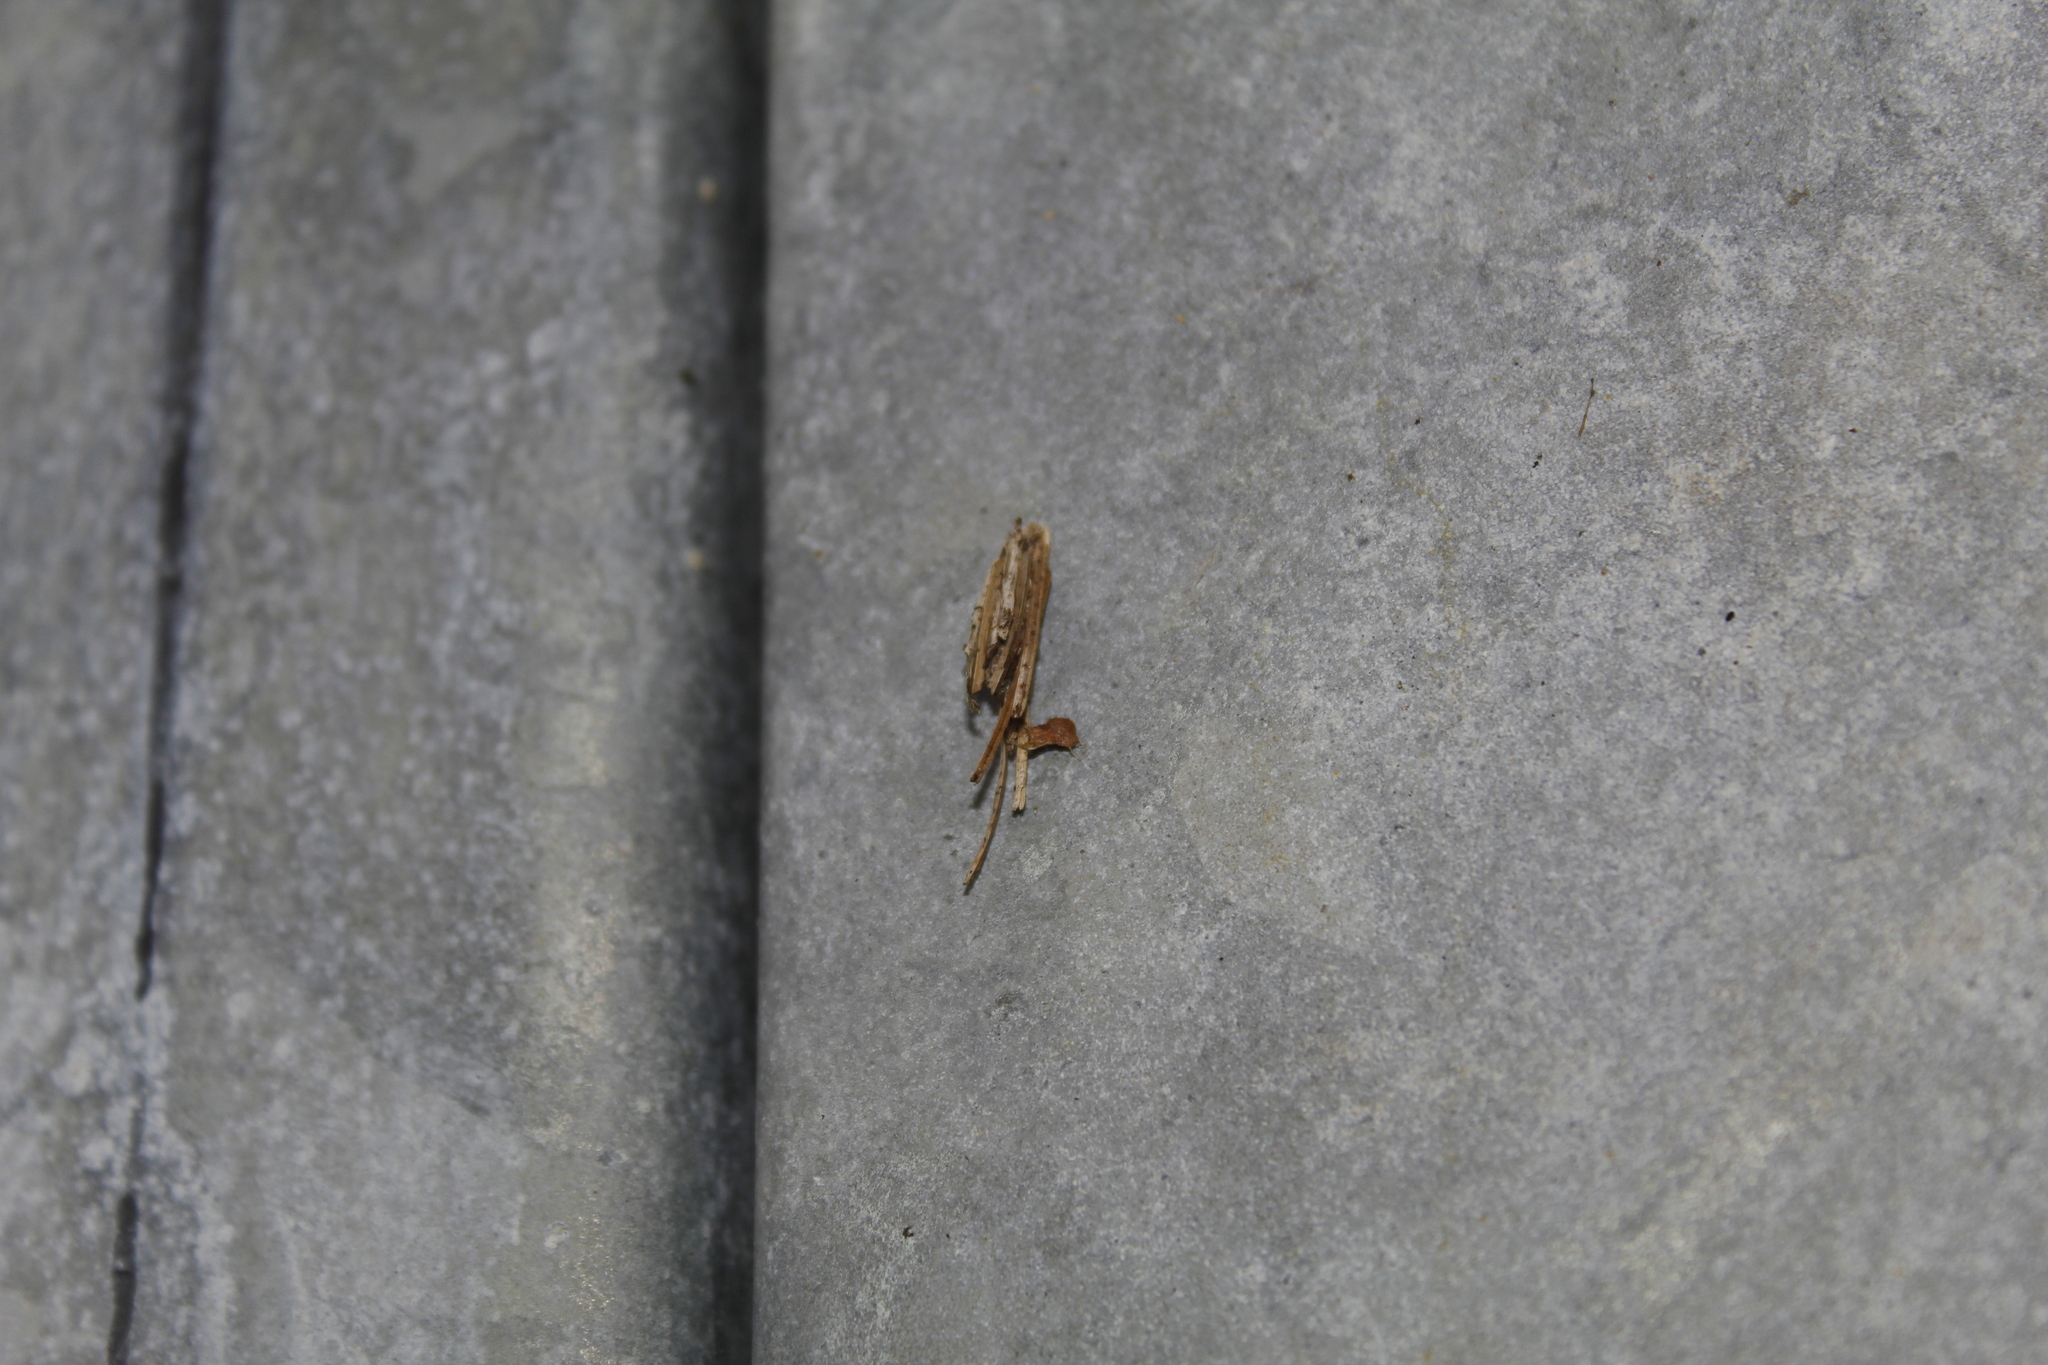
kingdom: Animalia
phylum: Arthropoda
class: Insecta
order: Lepidoptera
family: Psychidae
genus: Psyche
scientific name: Psyche casta
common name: Common sweep
